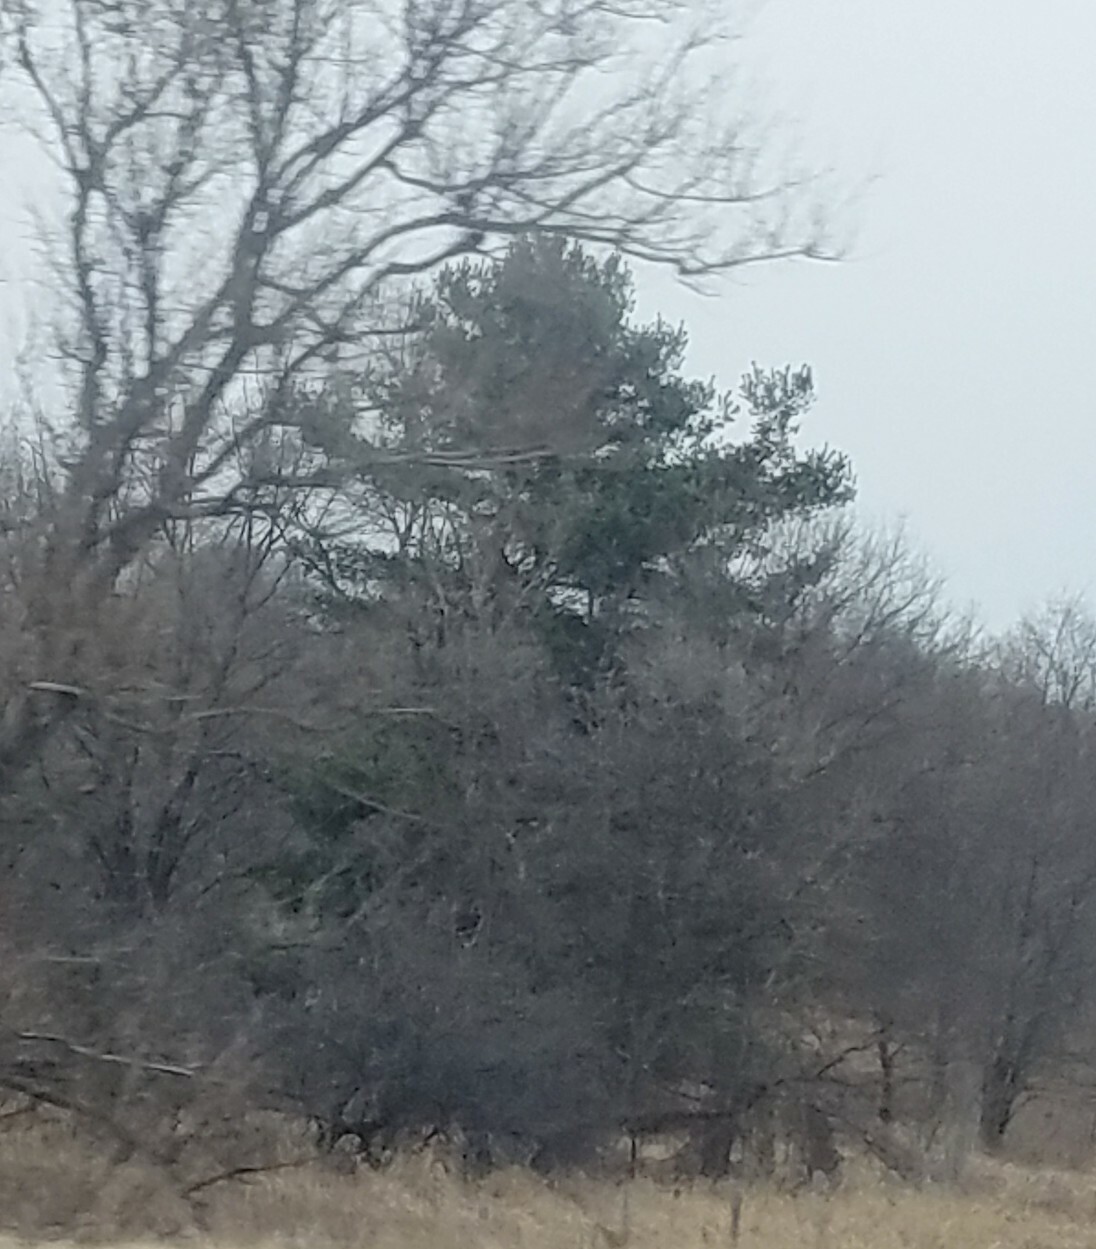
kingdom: Plantae
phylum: Tracheophyta
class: Pinopsida
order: Pinales
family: Pinaceae
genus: Pinus
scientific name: Pinus strobus
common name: Weymouth pine
